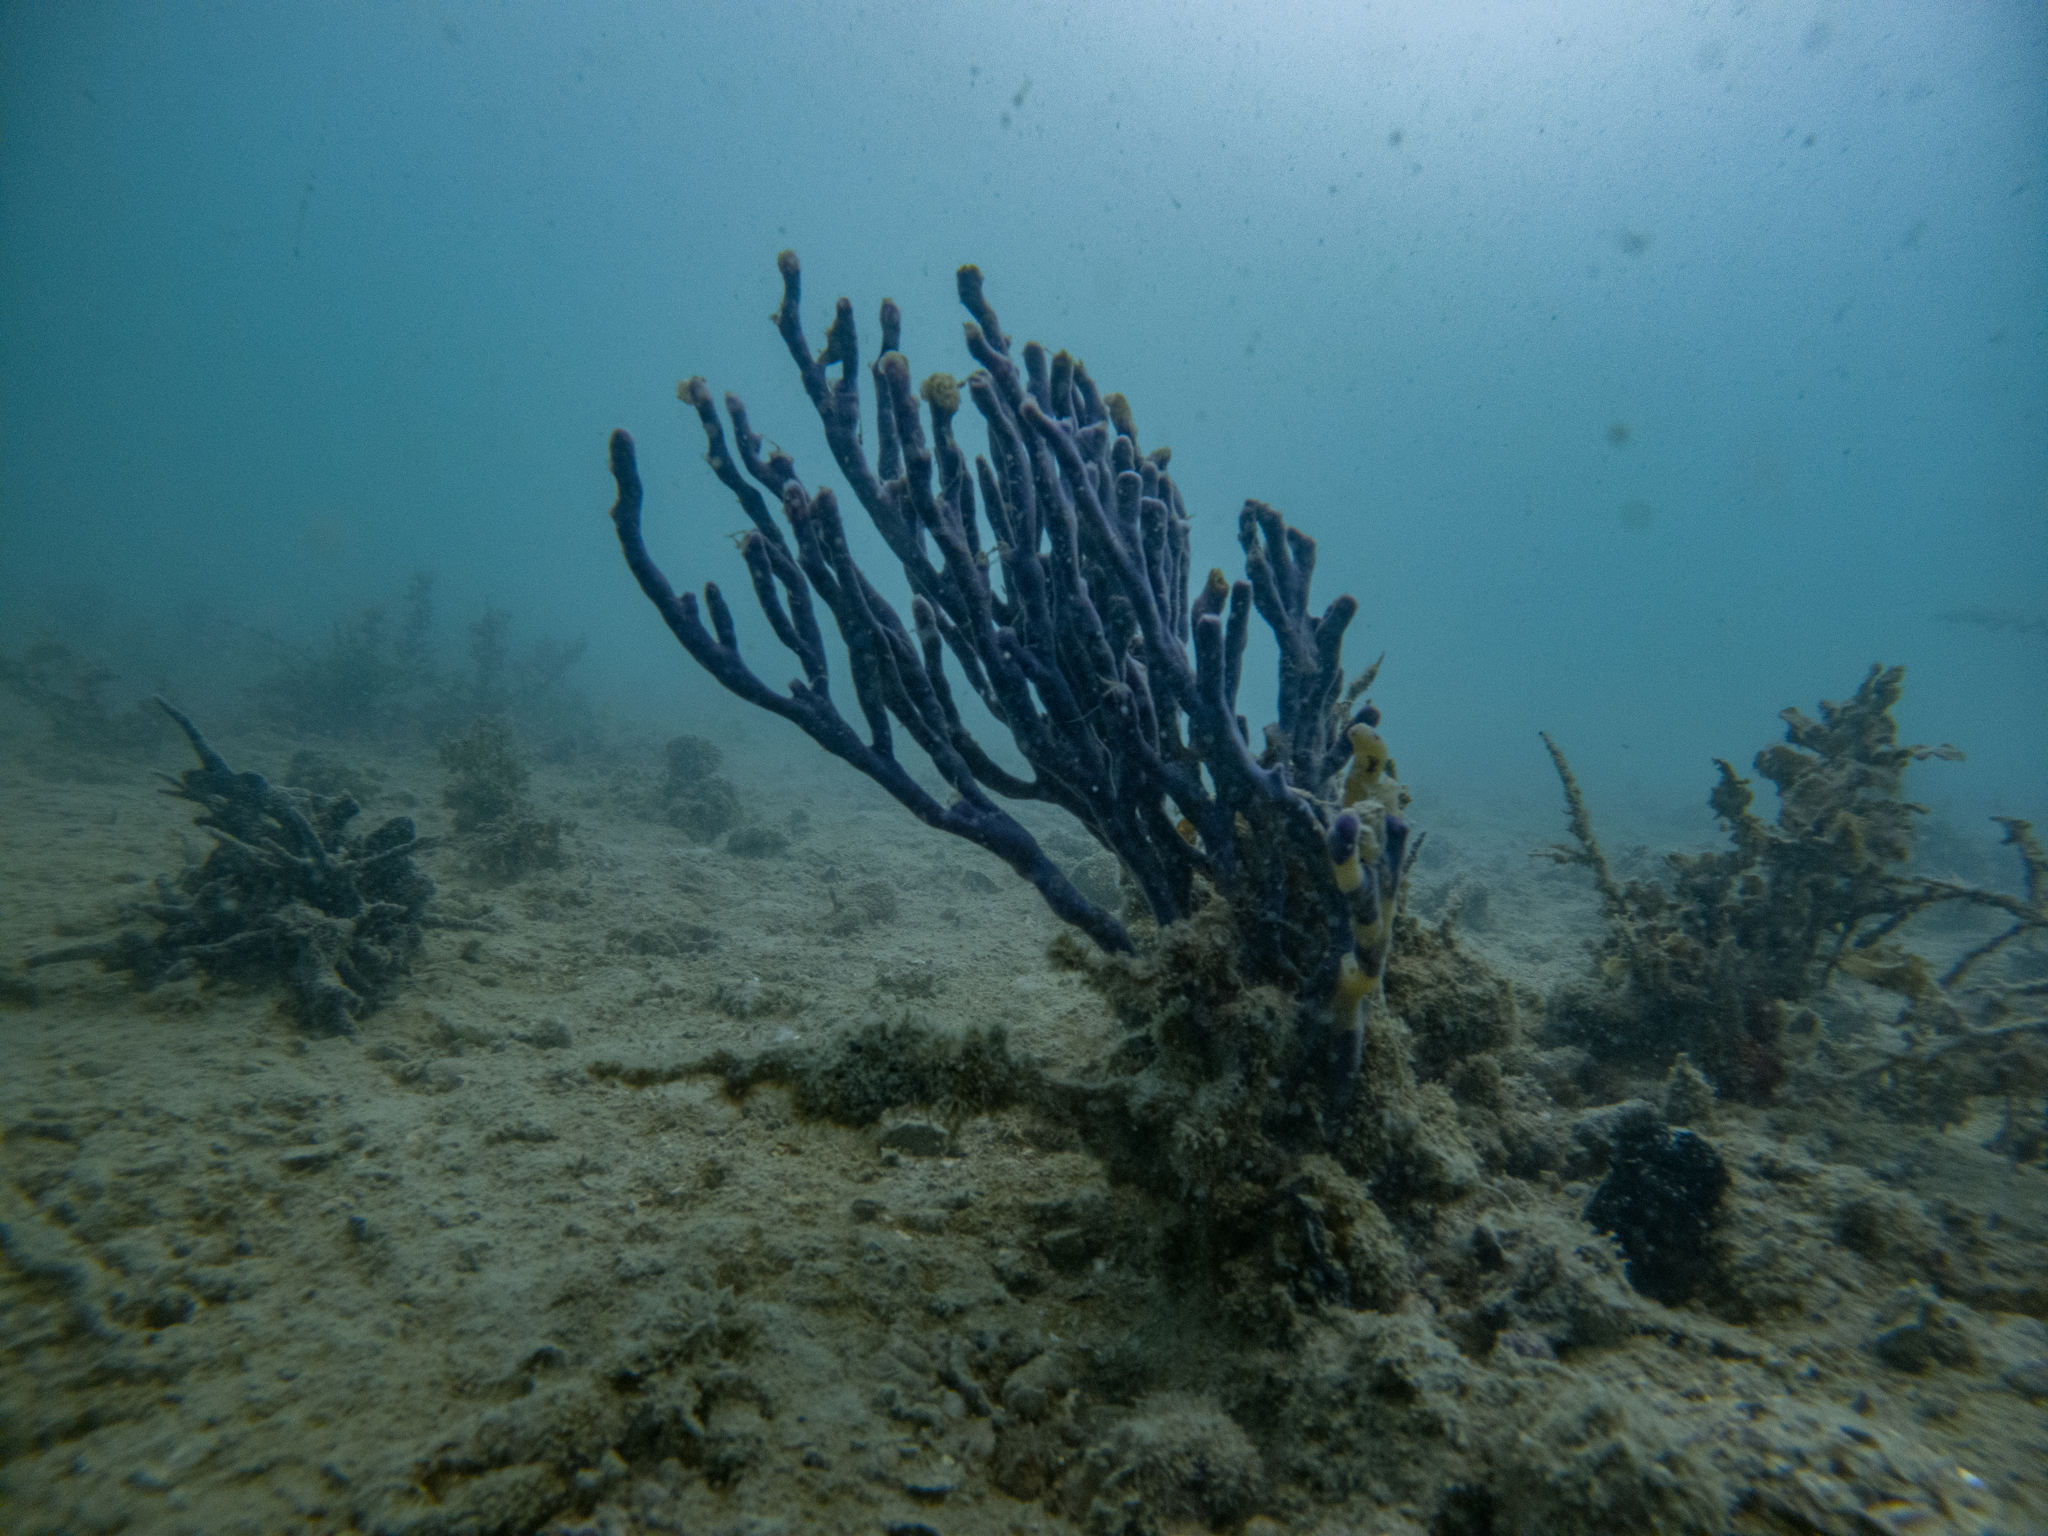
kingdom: Animalia
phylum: Porifera
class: Demospongiae
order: Haplosclerida
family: Callyspongiidae
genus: Callyspongia
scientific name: Callyspongia nuda
